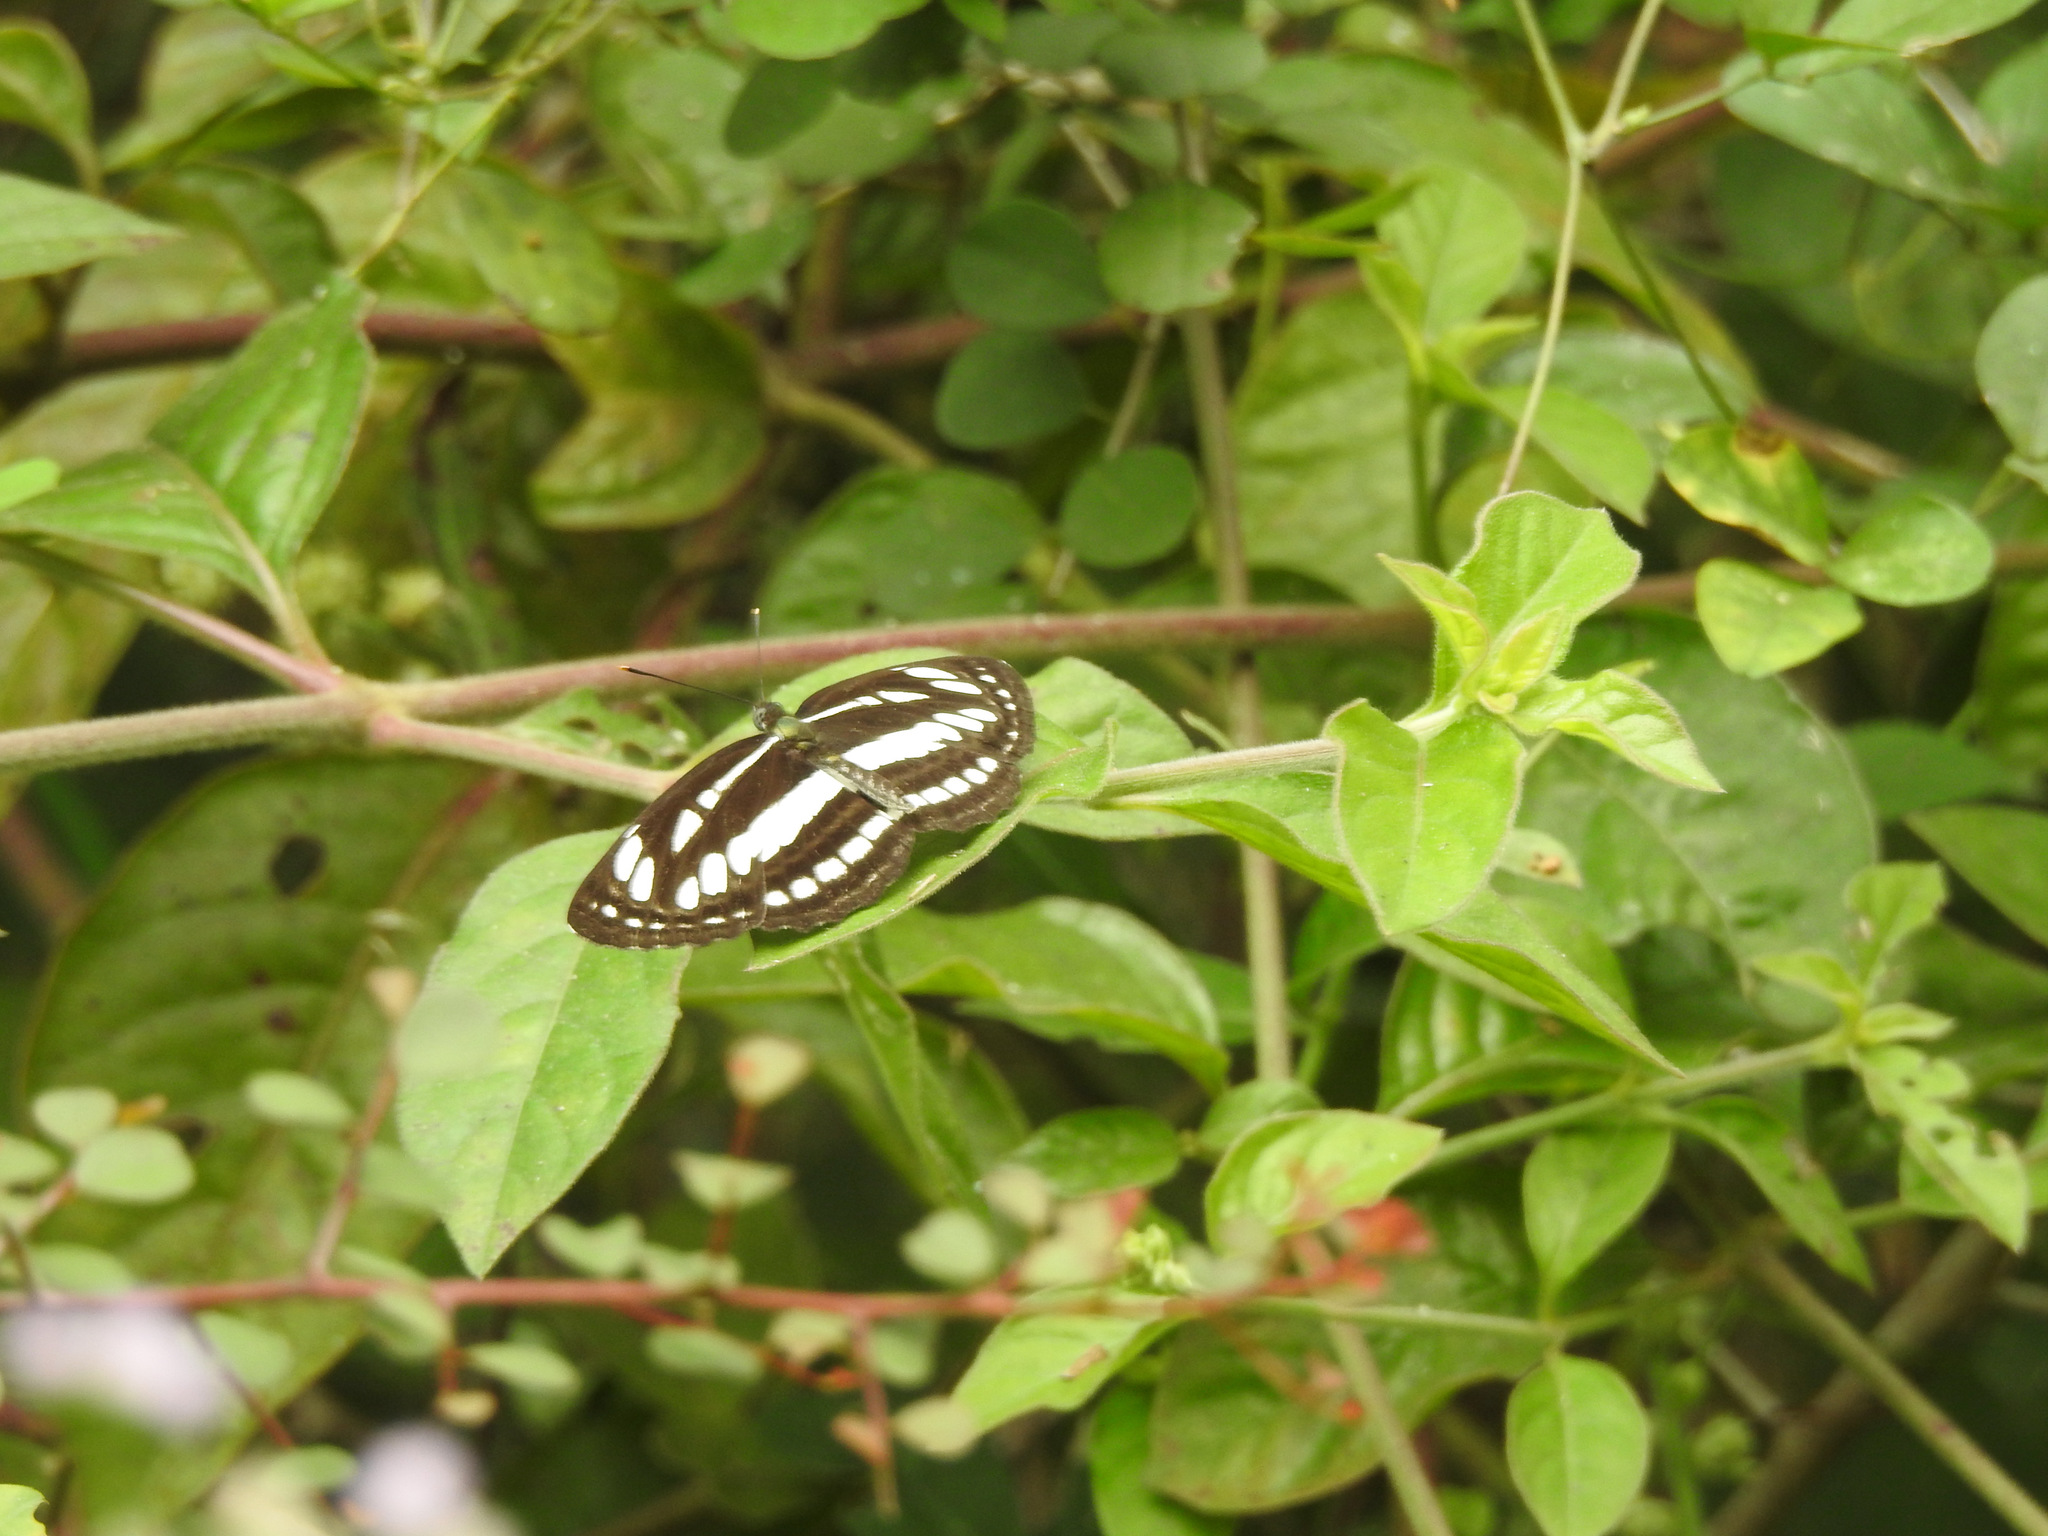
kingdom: Animalia
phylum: Arthropoda
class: Insecta
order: Lepidoptera
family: Nymphalidae
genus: Neptis
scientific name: Neptis hylas
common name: Common sailer
